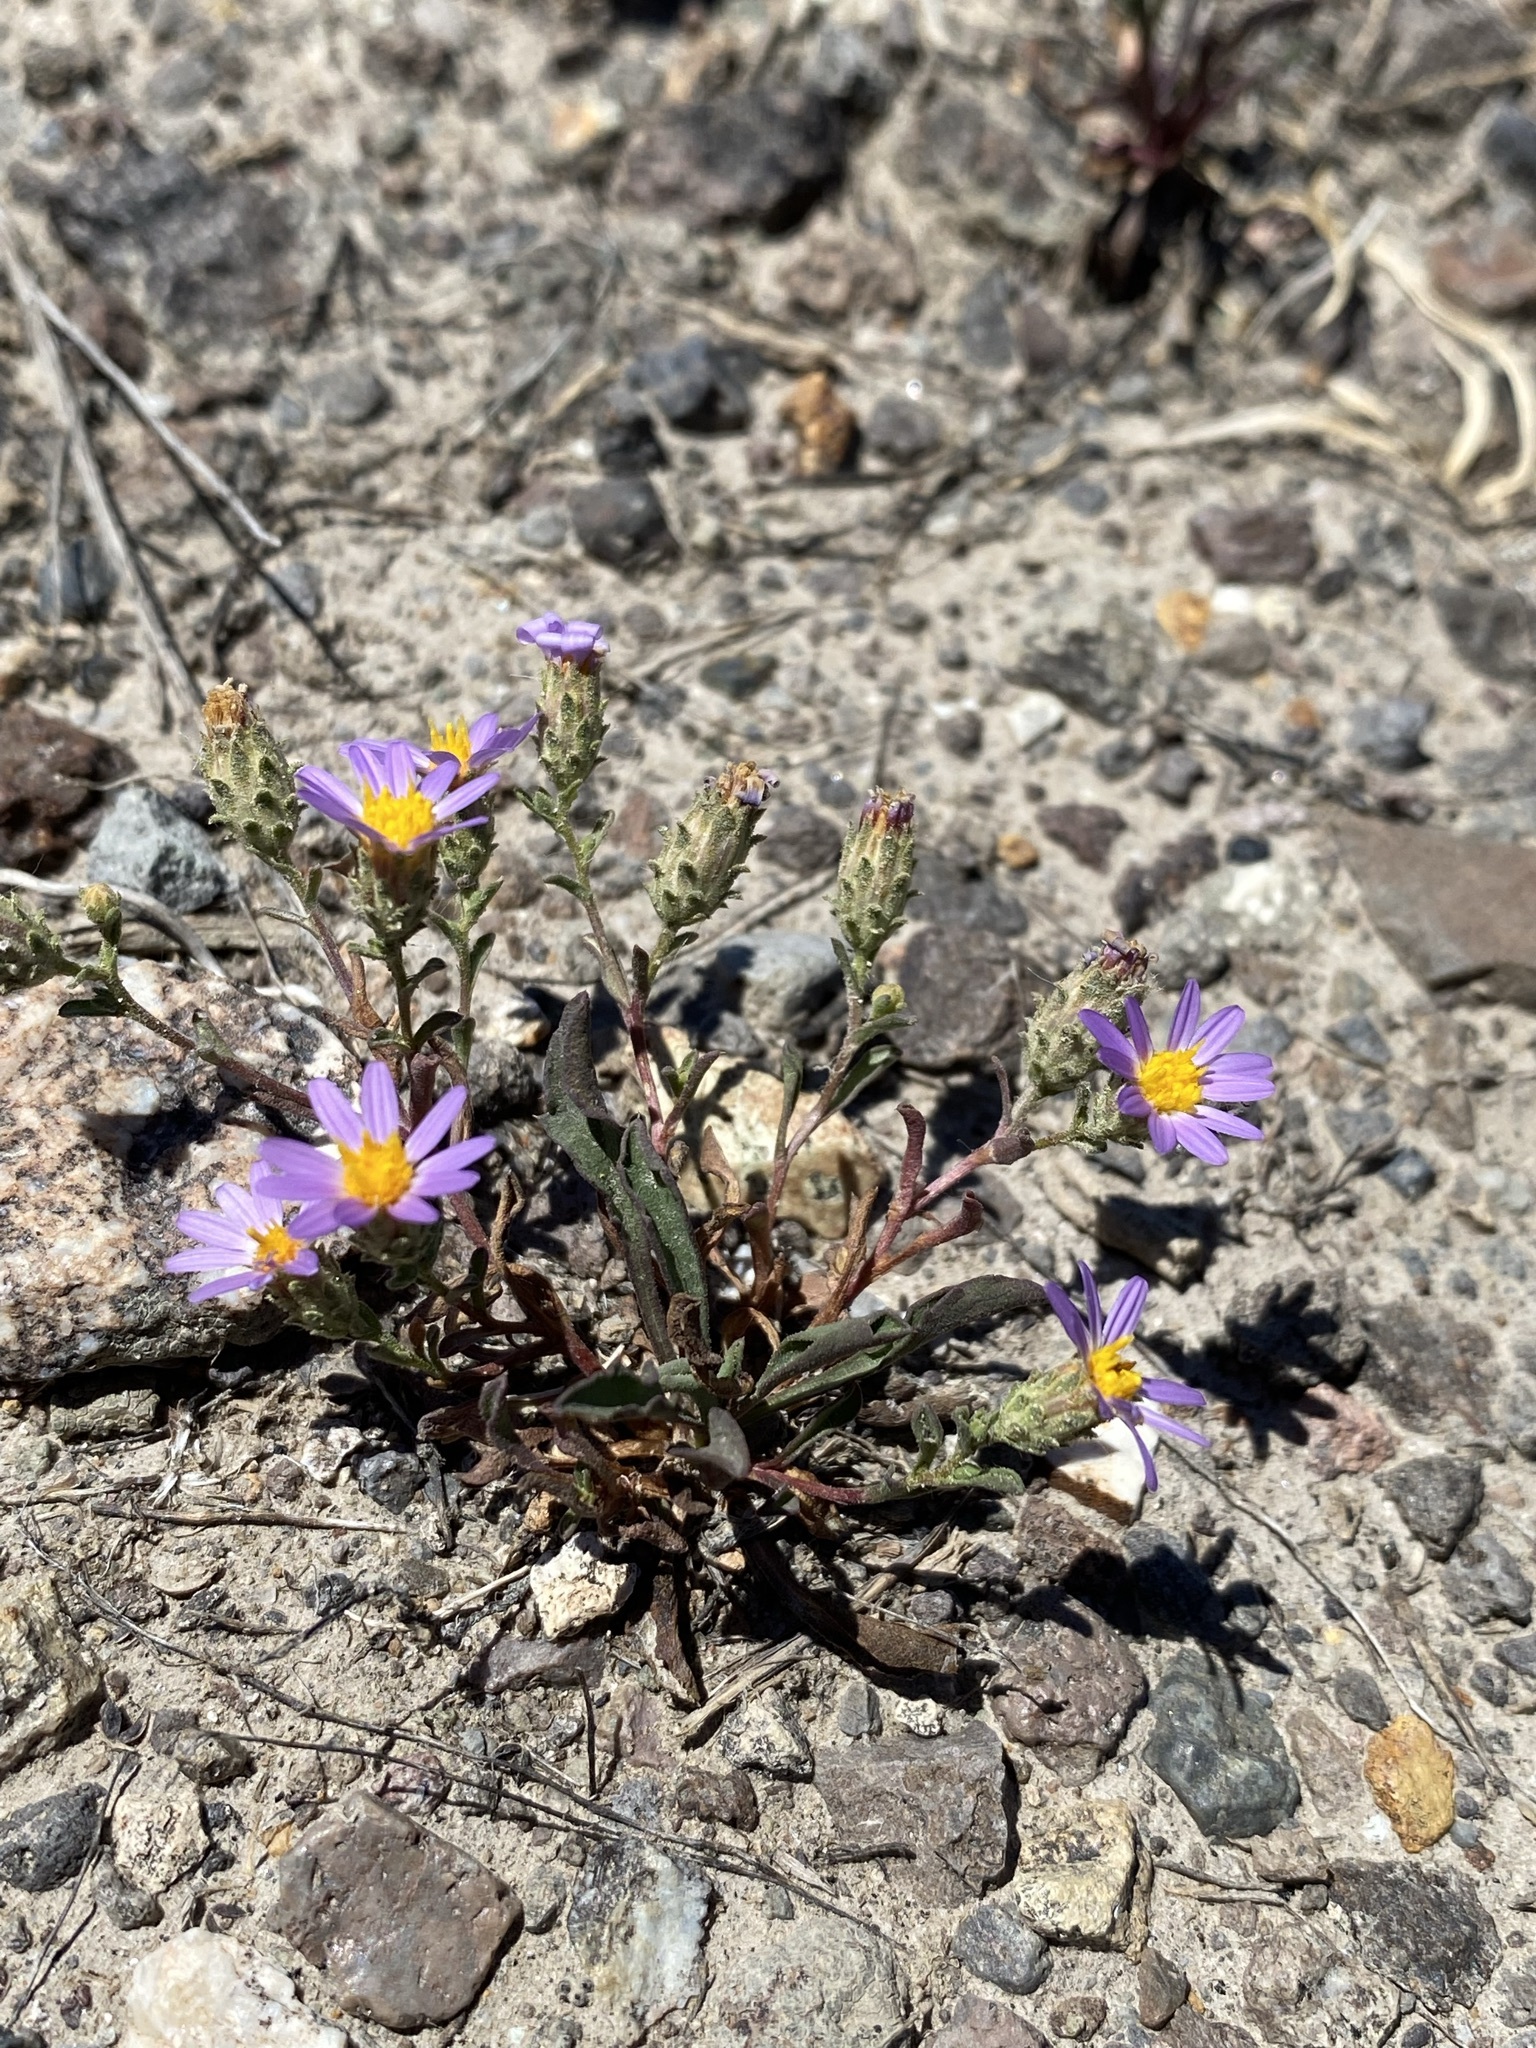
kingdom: Plantae
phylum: Tracheophyta
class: Magnoliopsida
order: Asterales
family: Asteraceae
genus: Dieteria
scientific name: Dieteria canescens
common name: Hoary-aster
